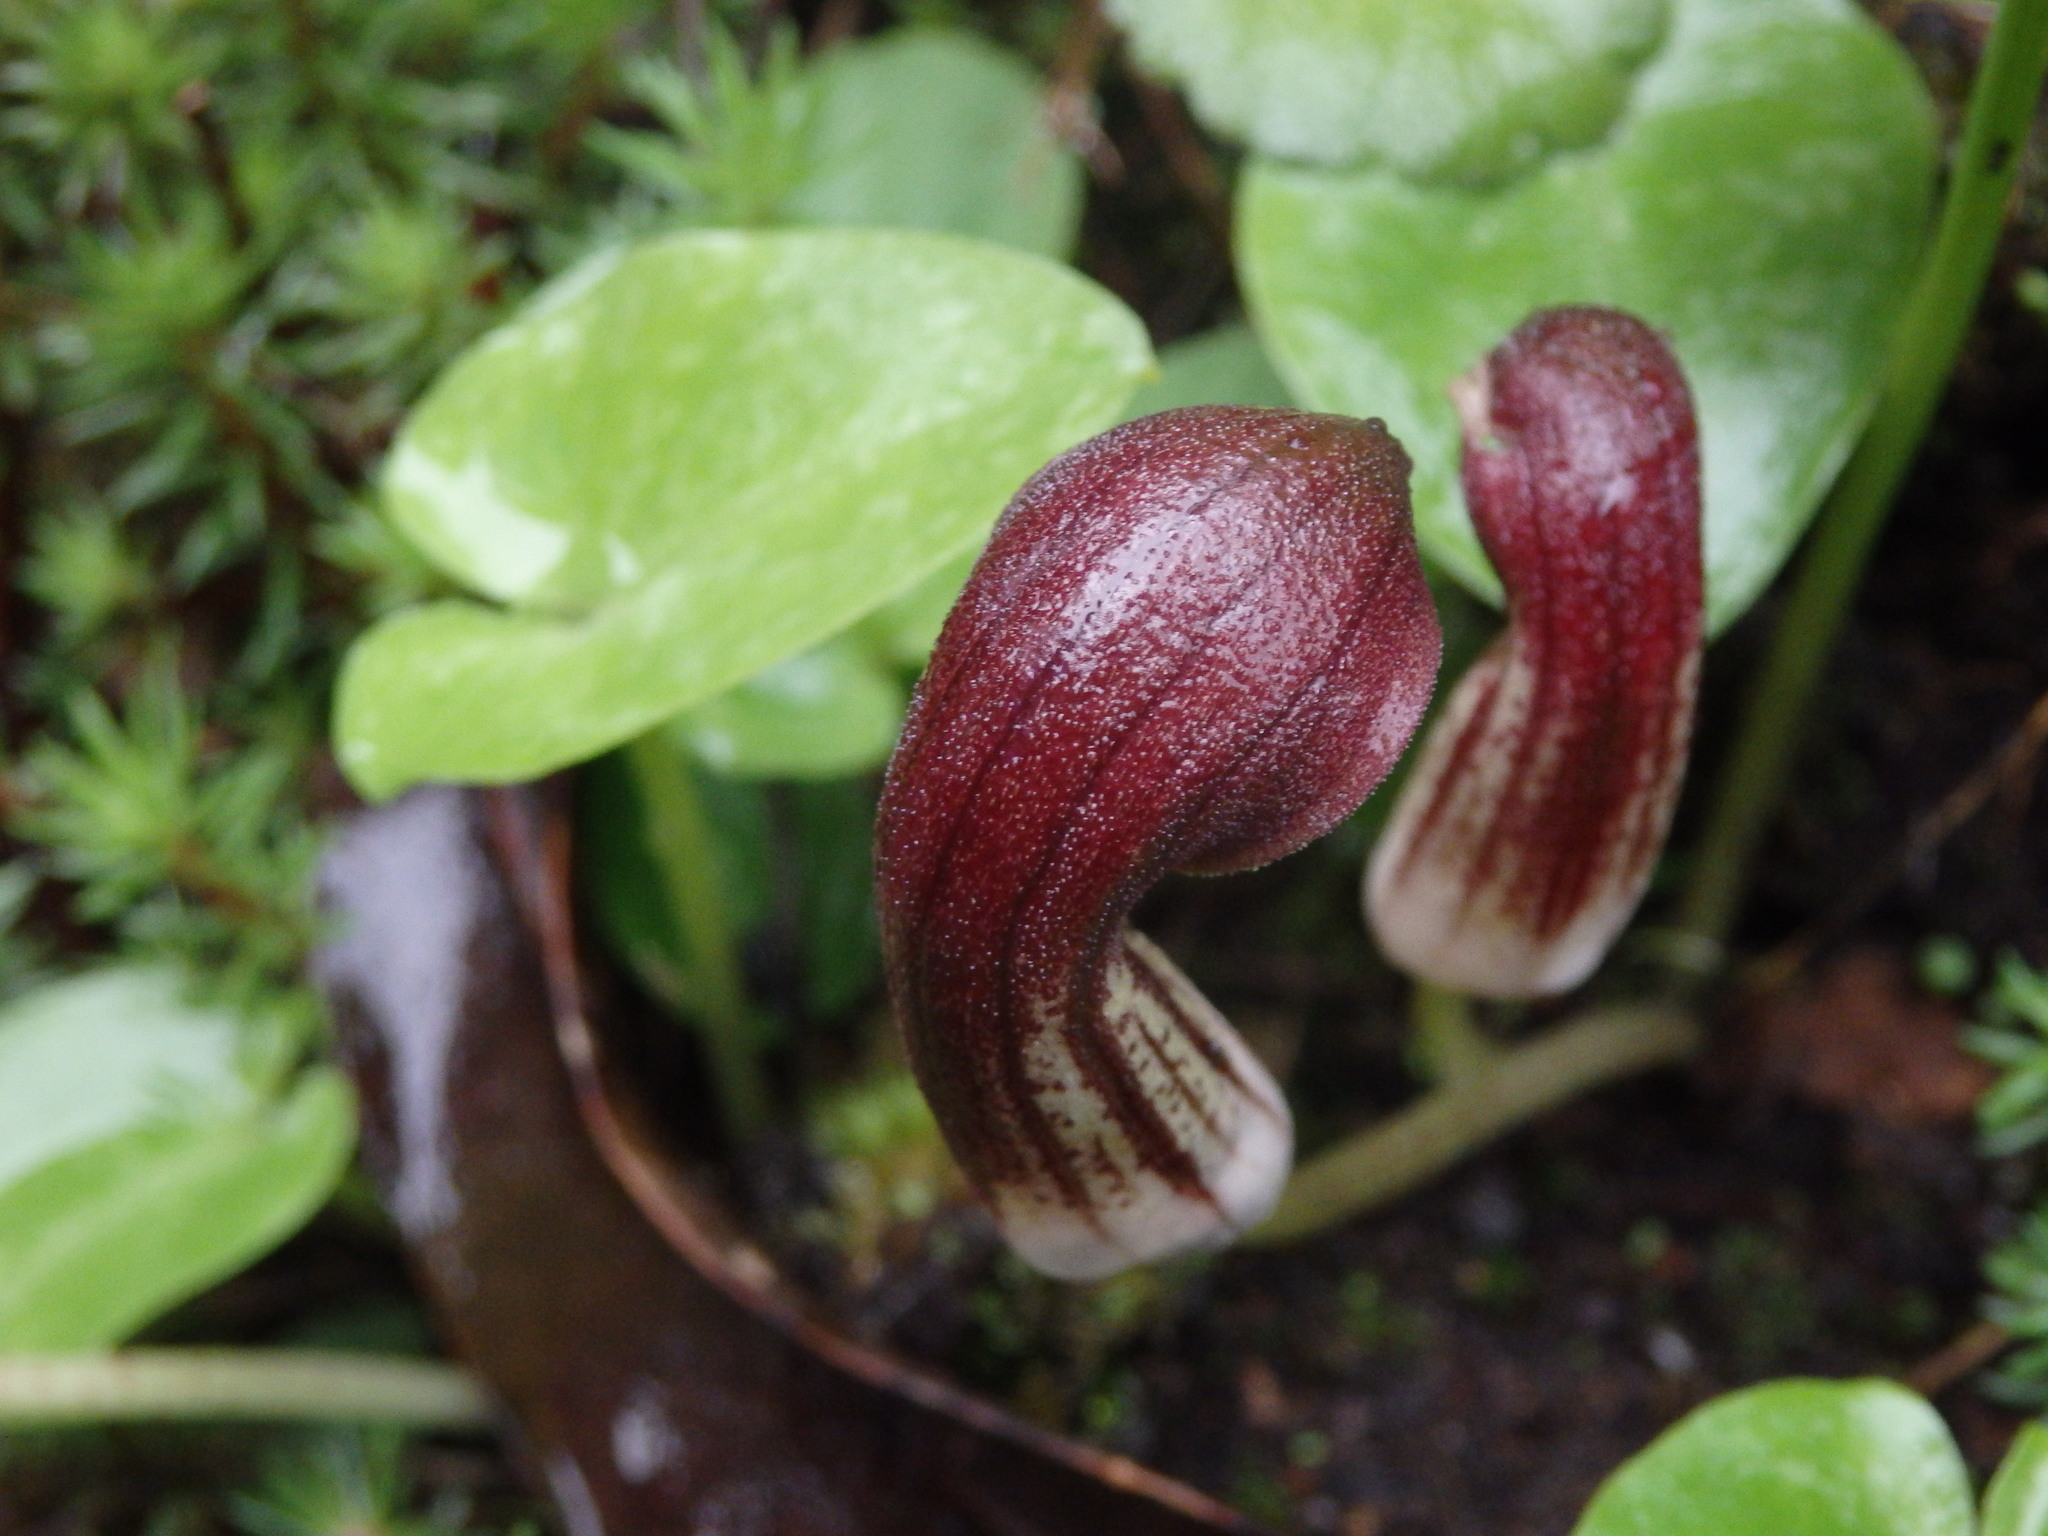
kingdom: Plantae
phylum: Tracheophyta
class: Liliopsida
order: Alismatales
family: Araceae
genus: Arisarum
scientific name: Arisarum simorrhinum
